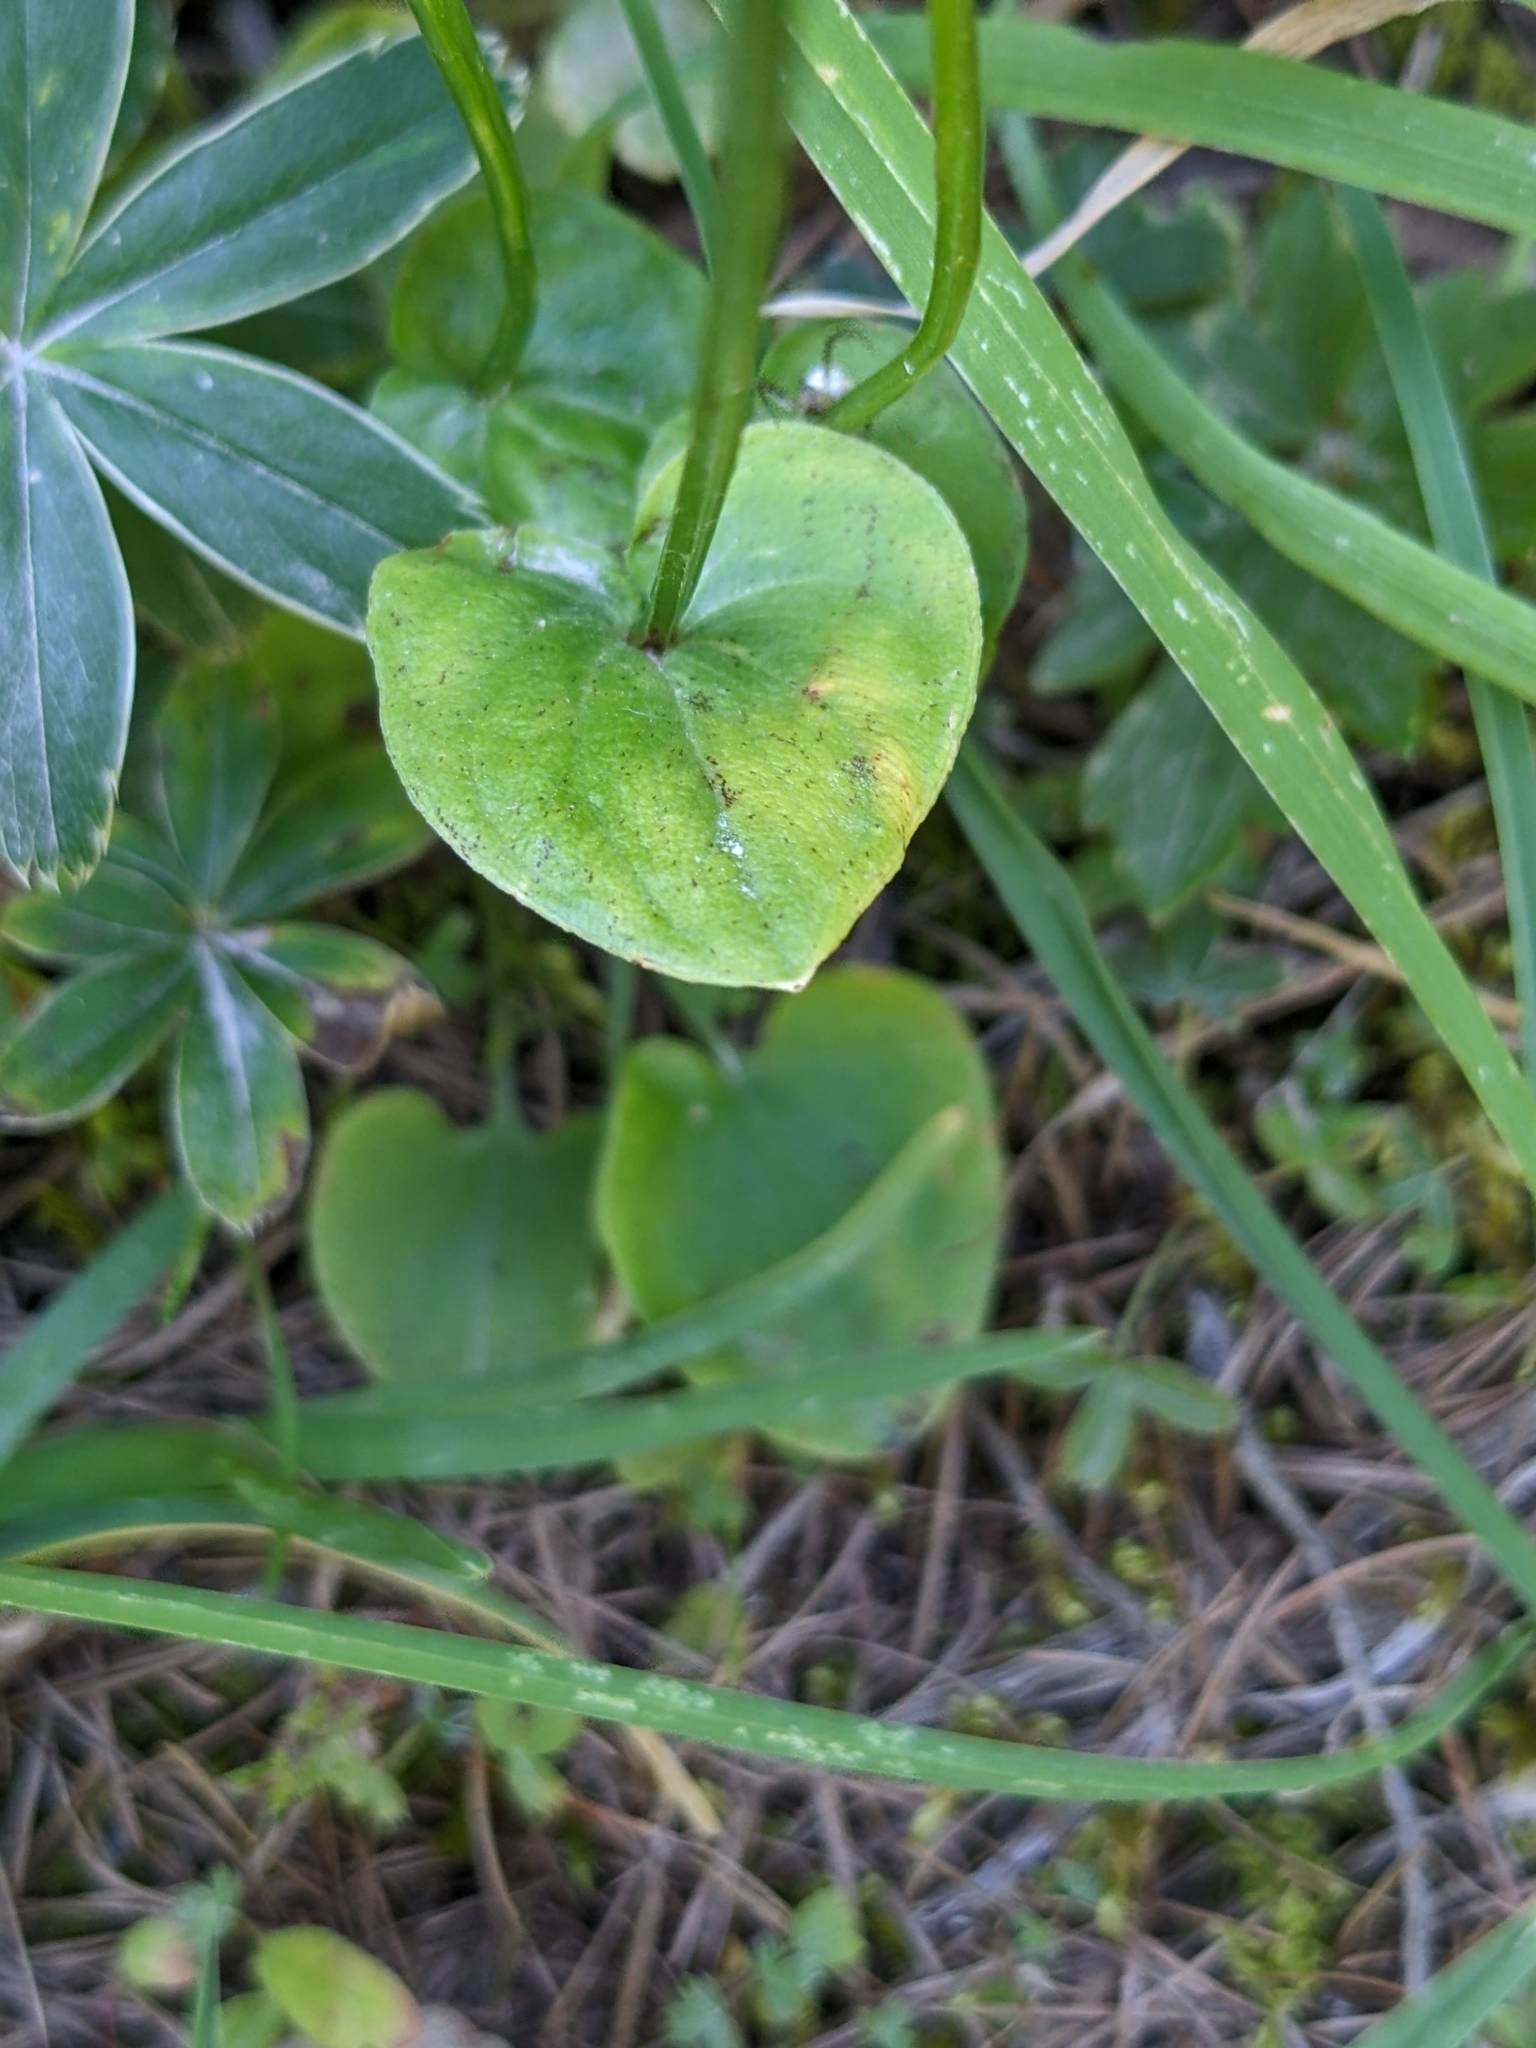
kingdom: Plantae
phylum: Tracheophyta
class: Magnoliopsida
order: Celastrales
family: Parnassiaceae
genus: Parnassia
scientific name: Parnassia palustris
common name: Grass-of-parnassus
